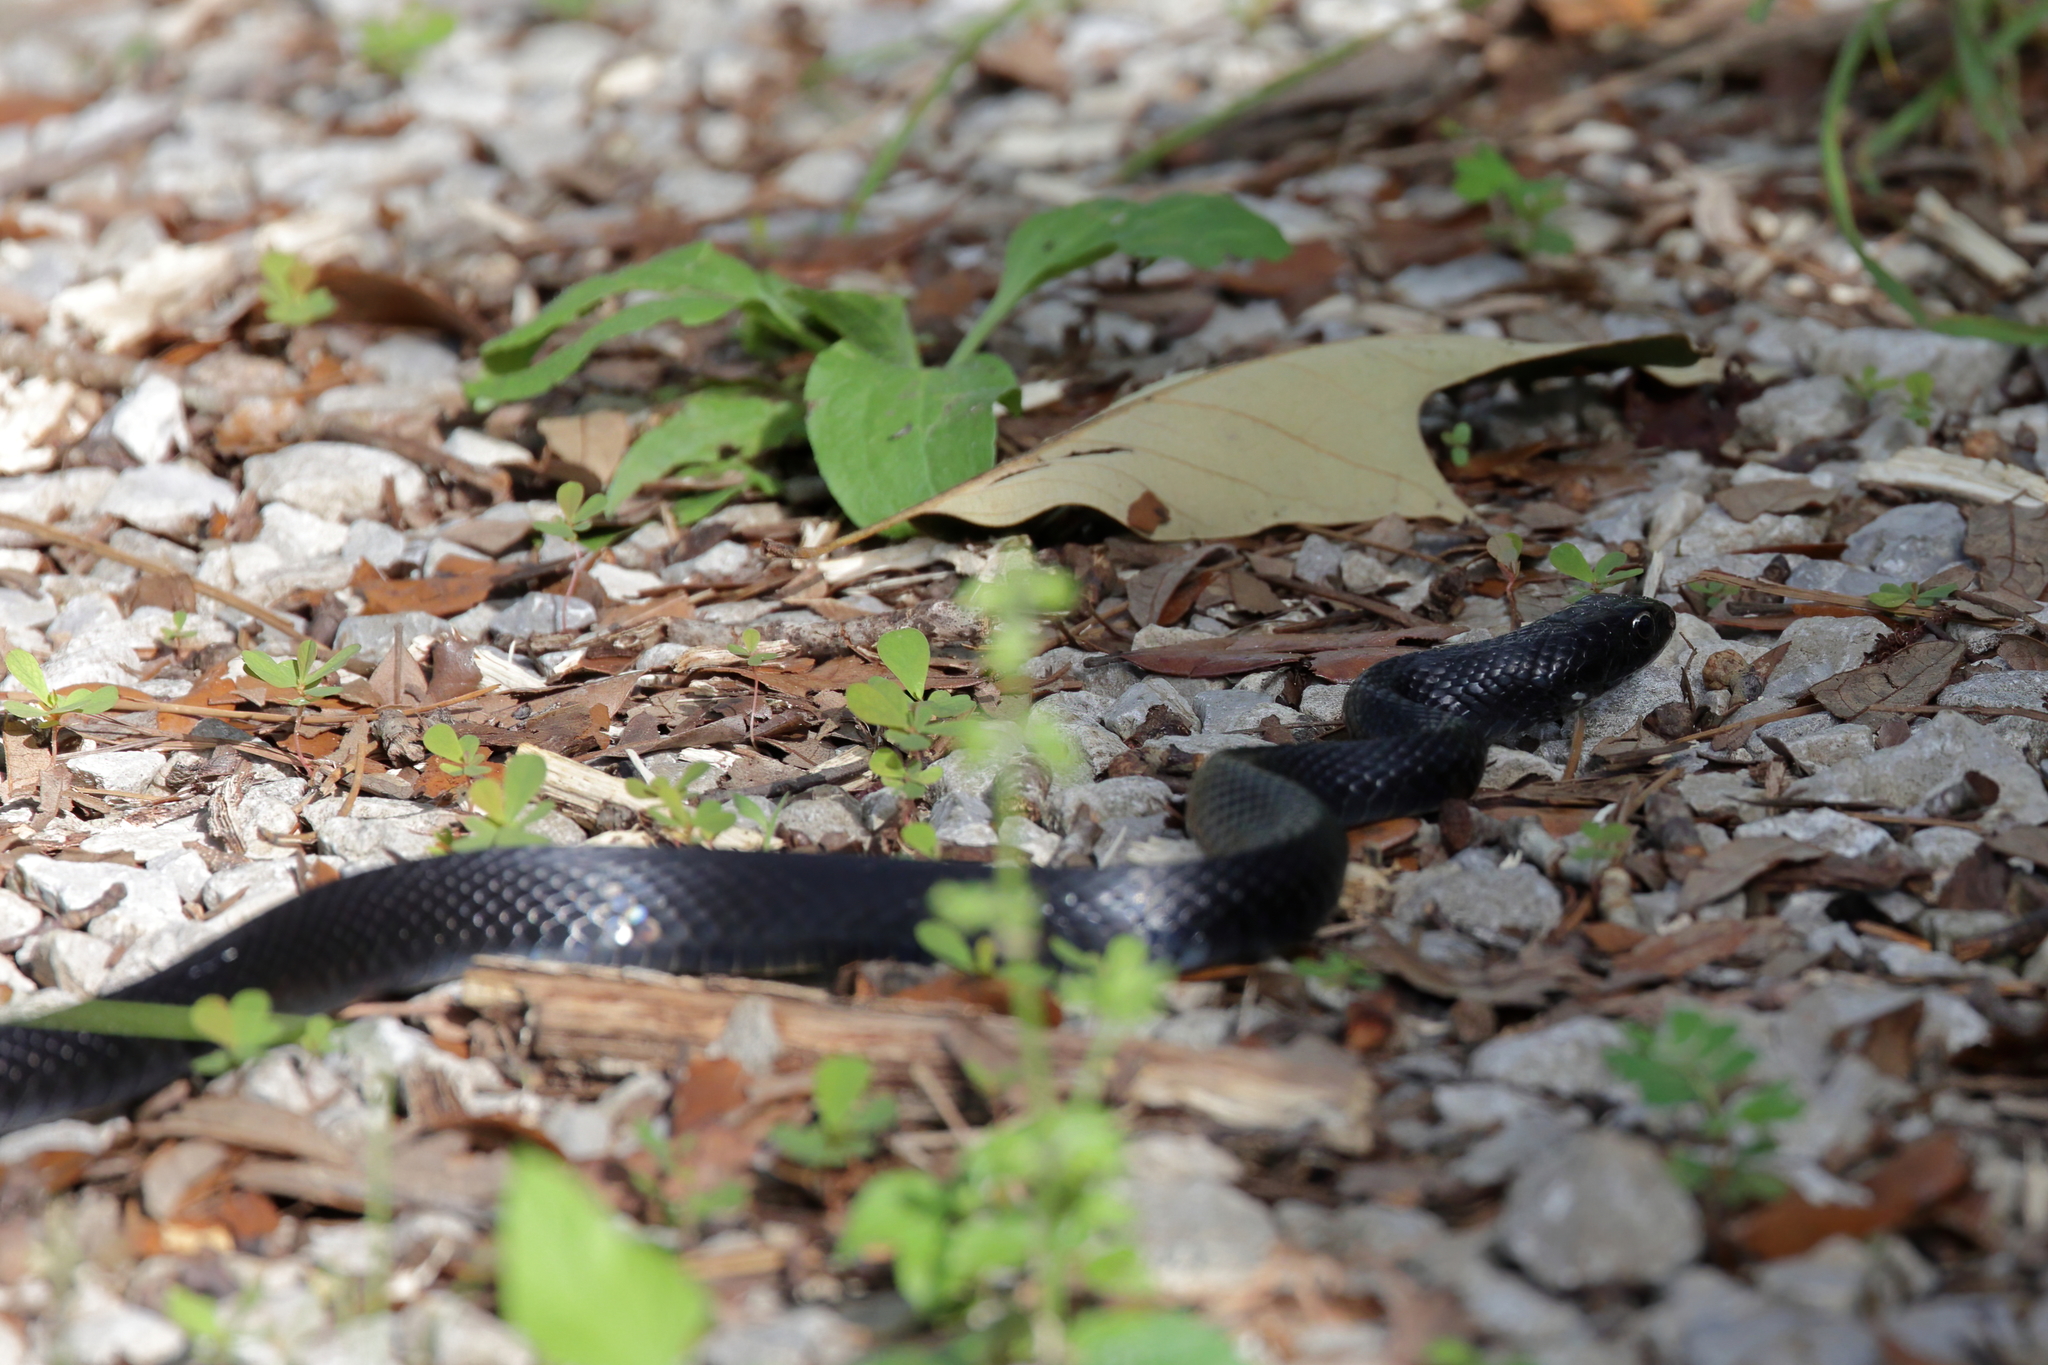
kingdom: Animalia
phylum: Chordata
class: Squamata
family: Colubridae
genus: Coluber
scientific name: Coluber constrictor
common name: Eastern racer
